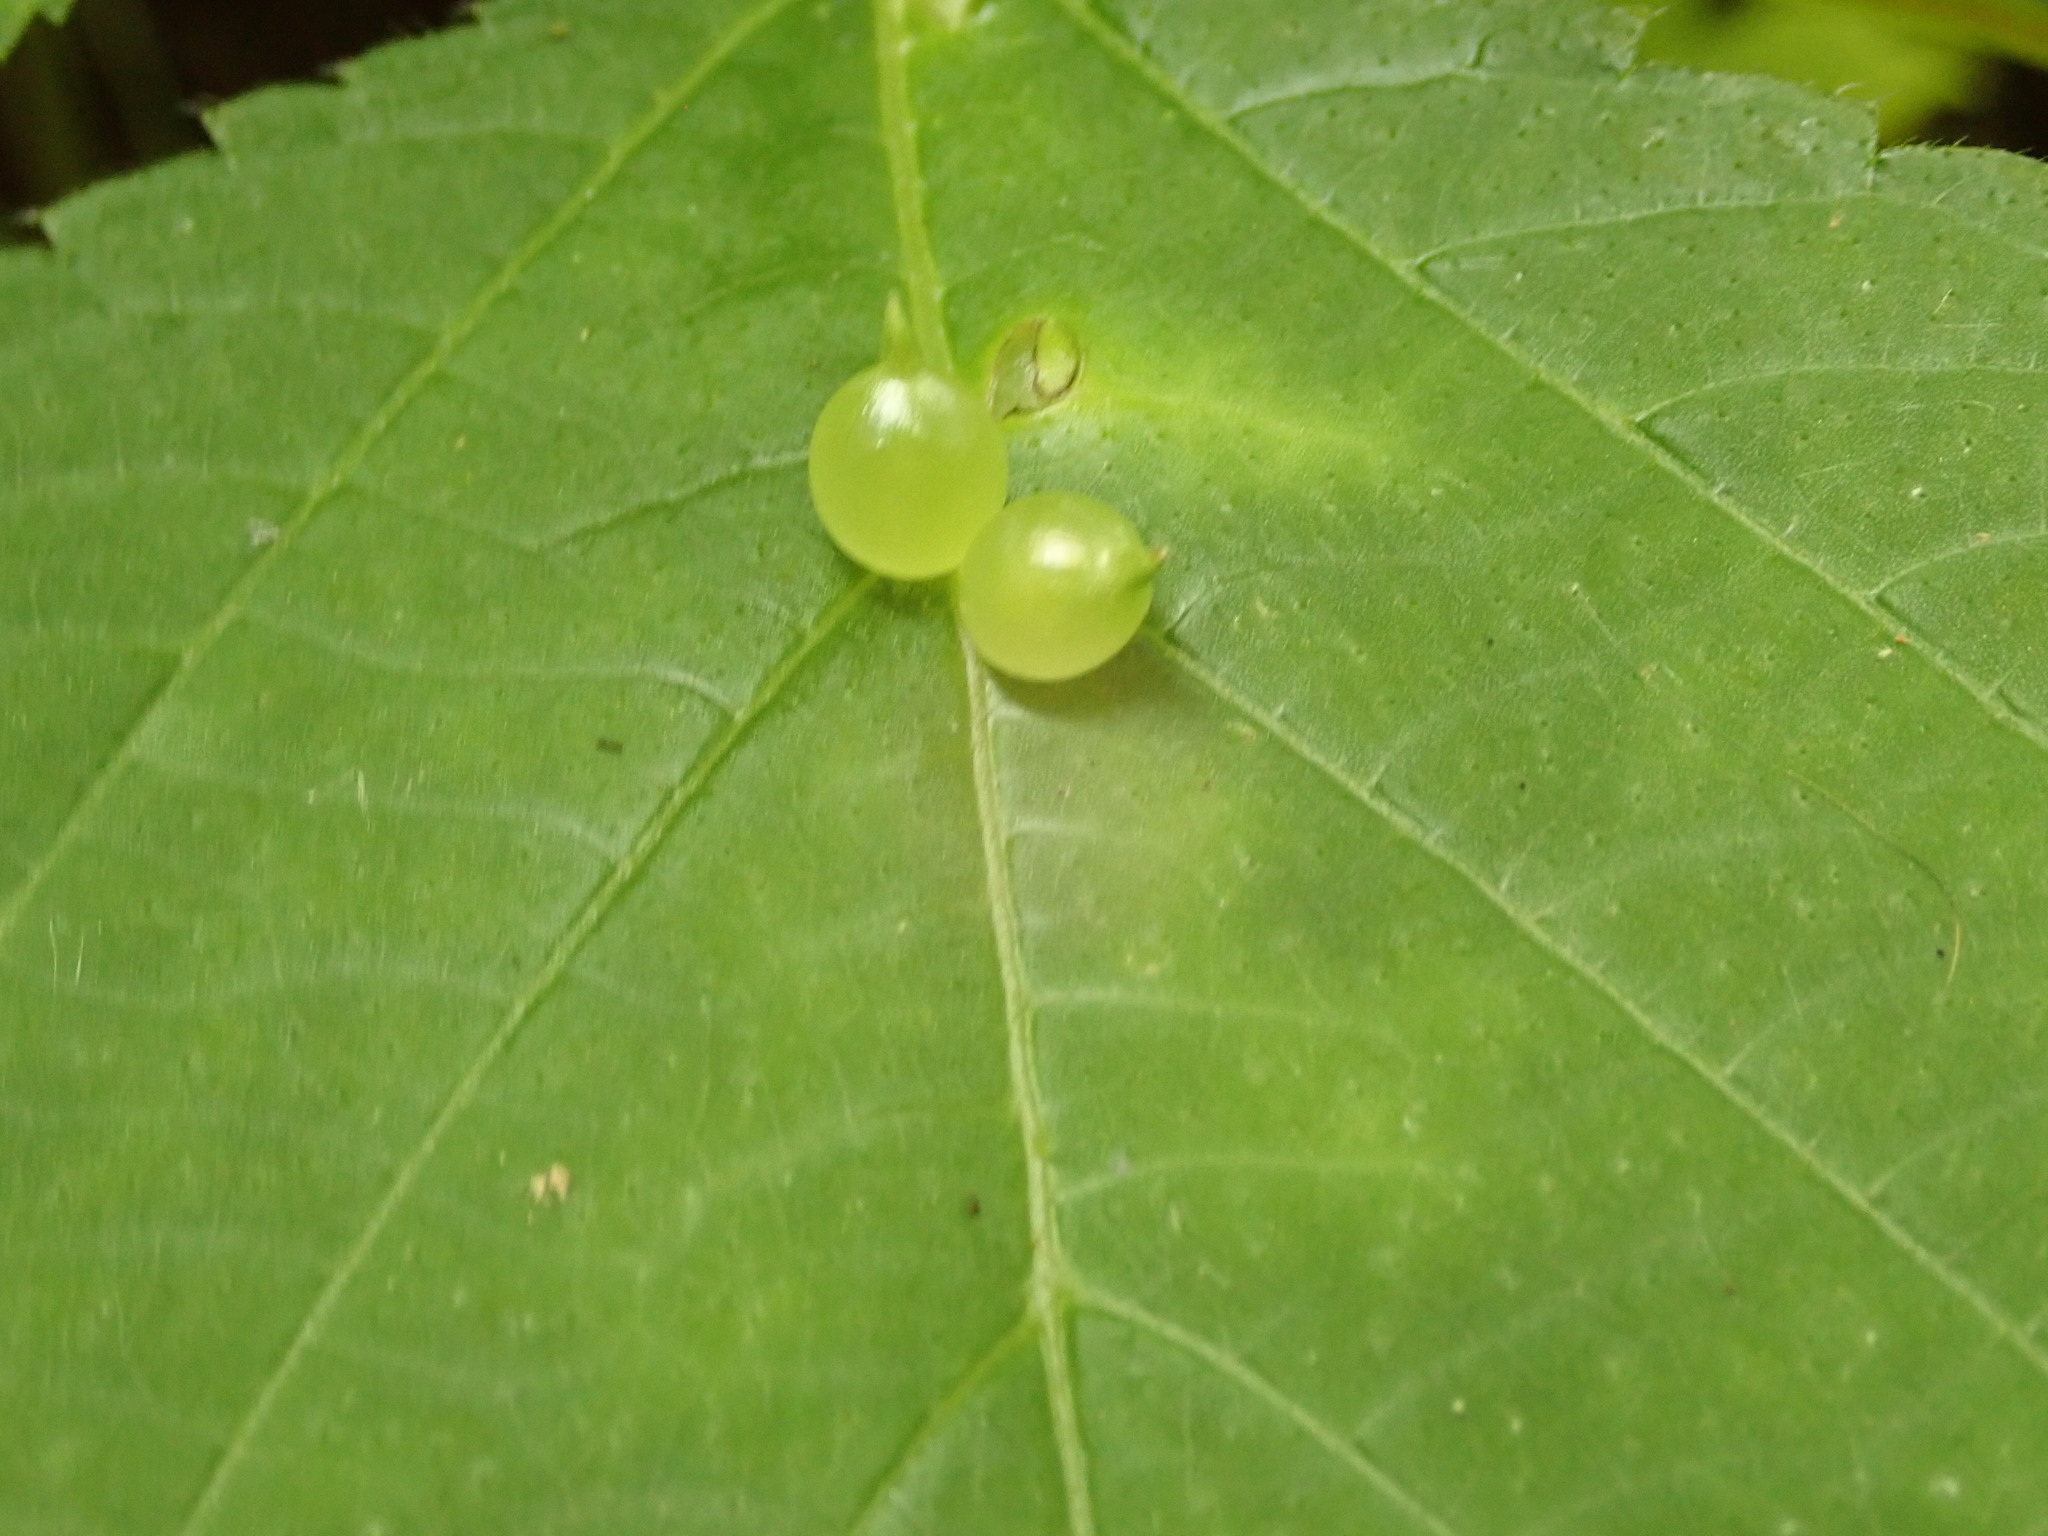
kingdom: Animalia
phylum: Arthropoda
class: Insecta
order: Diptera
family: Cecidomyiidae
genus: Dasineura
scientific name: Dasineura investita
